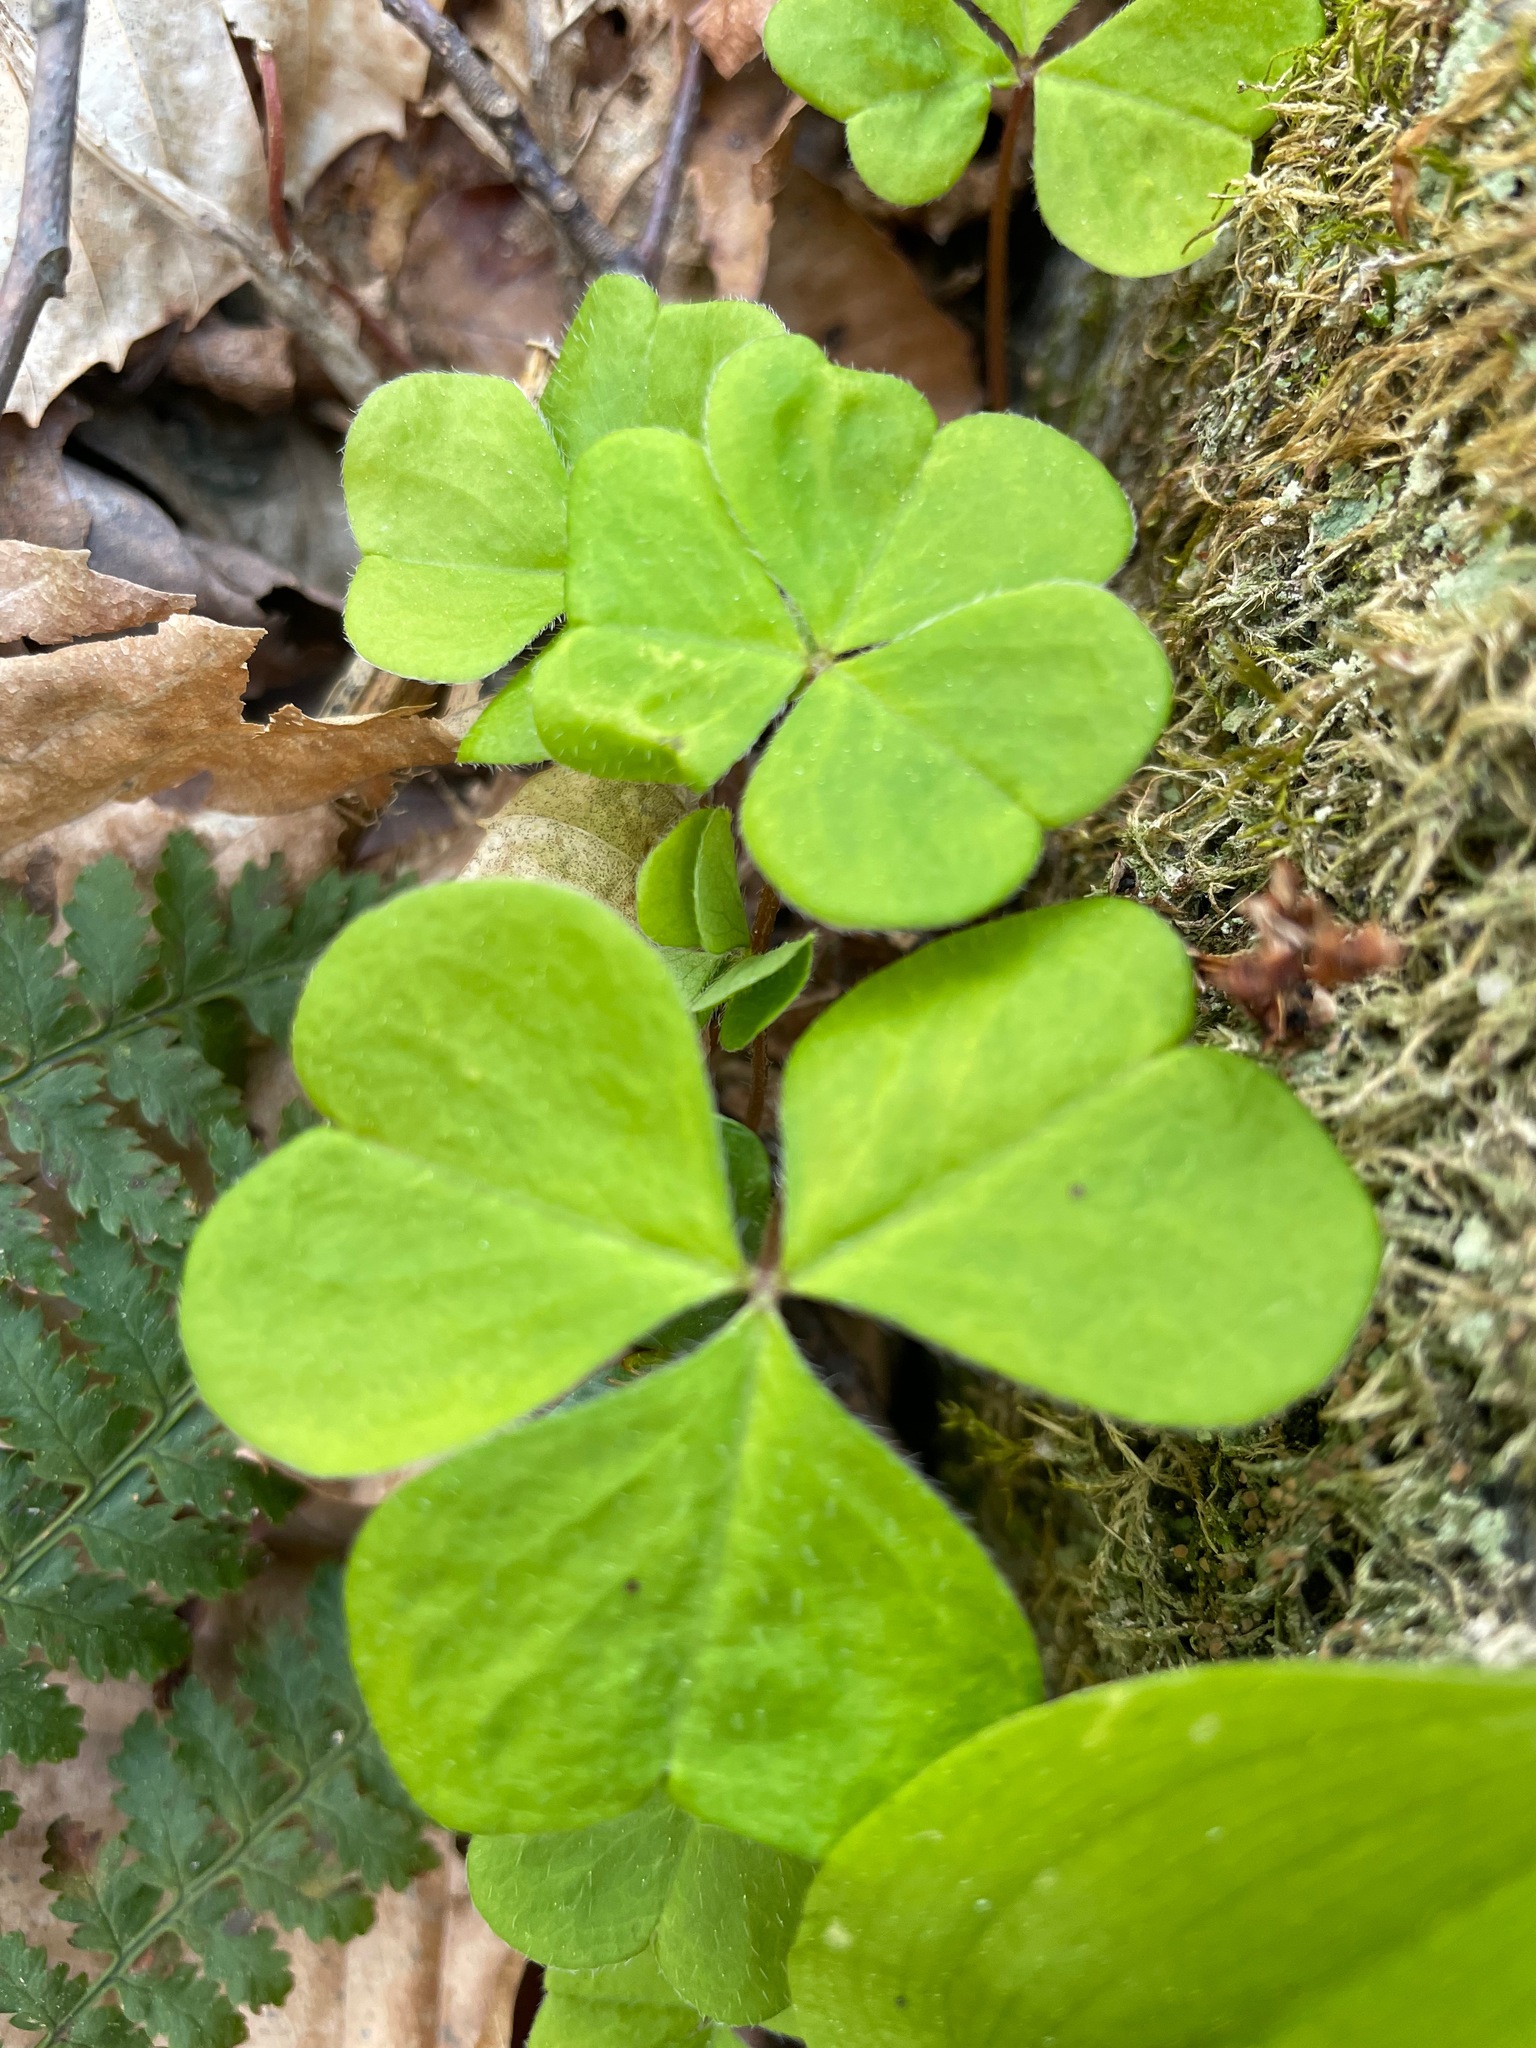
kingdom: Plantae
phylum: Tracheophyta
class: Magnoliopsida
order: Oxalidales
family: Oxalidaceae
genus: Oxalis
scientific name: Oxalis montana
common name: American wood-sorrel
